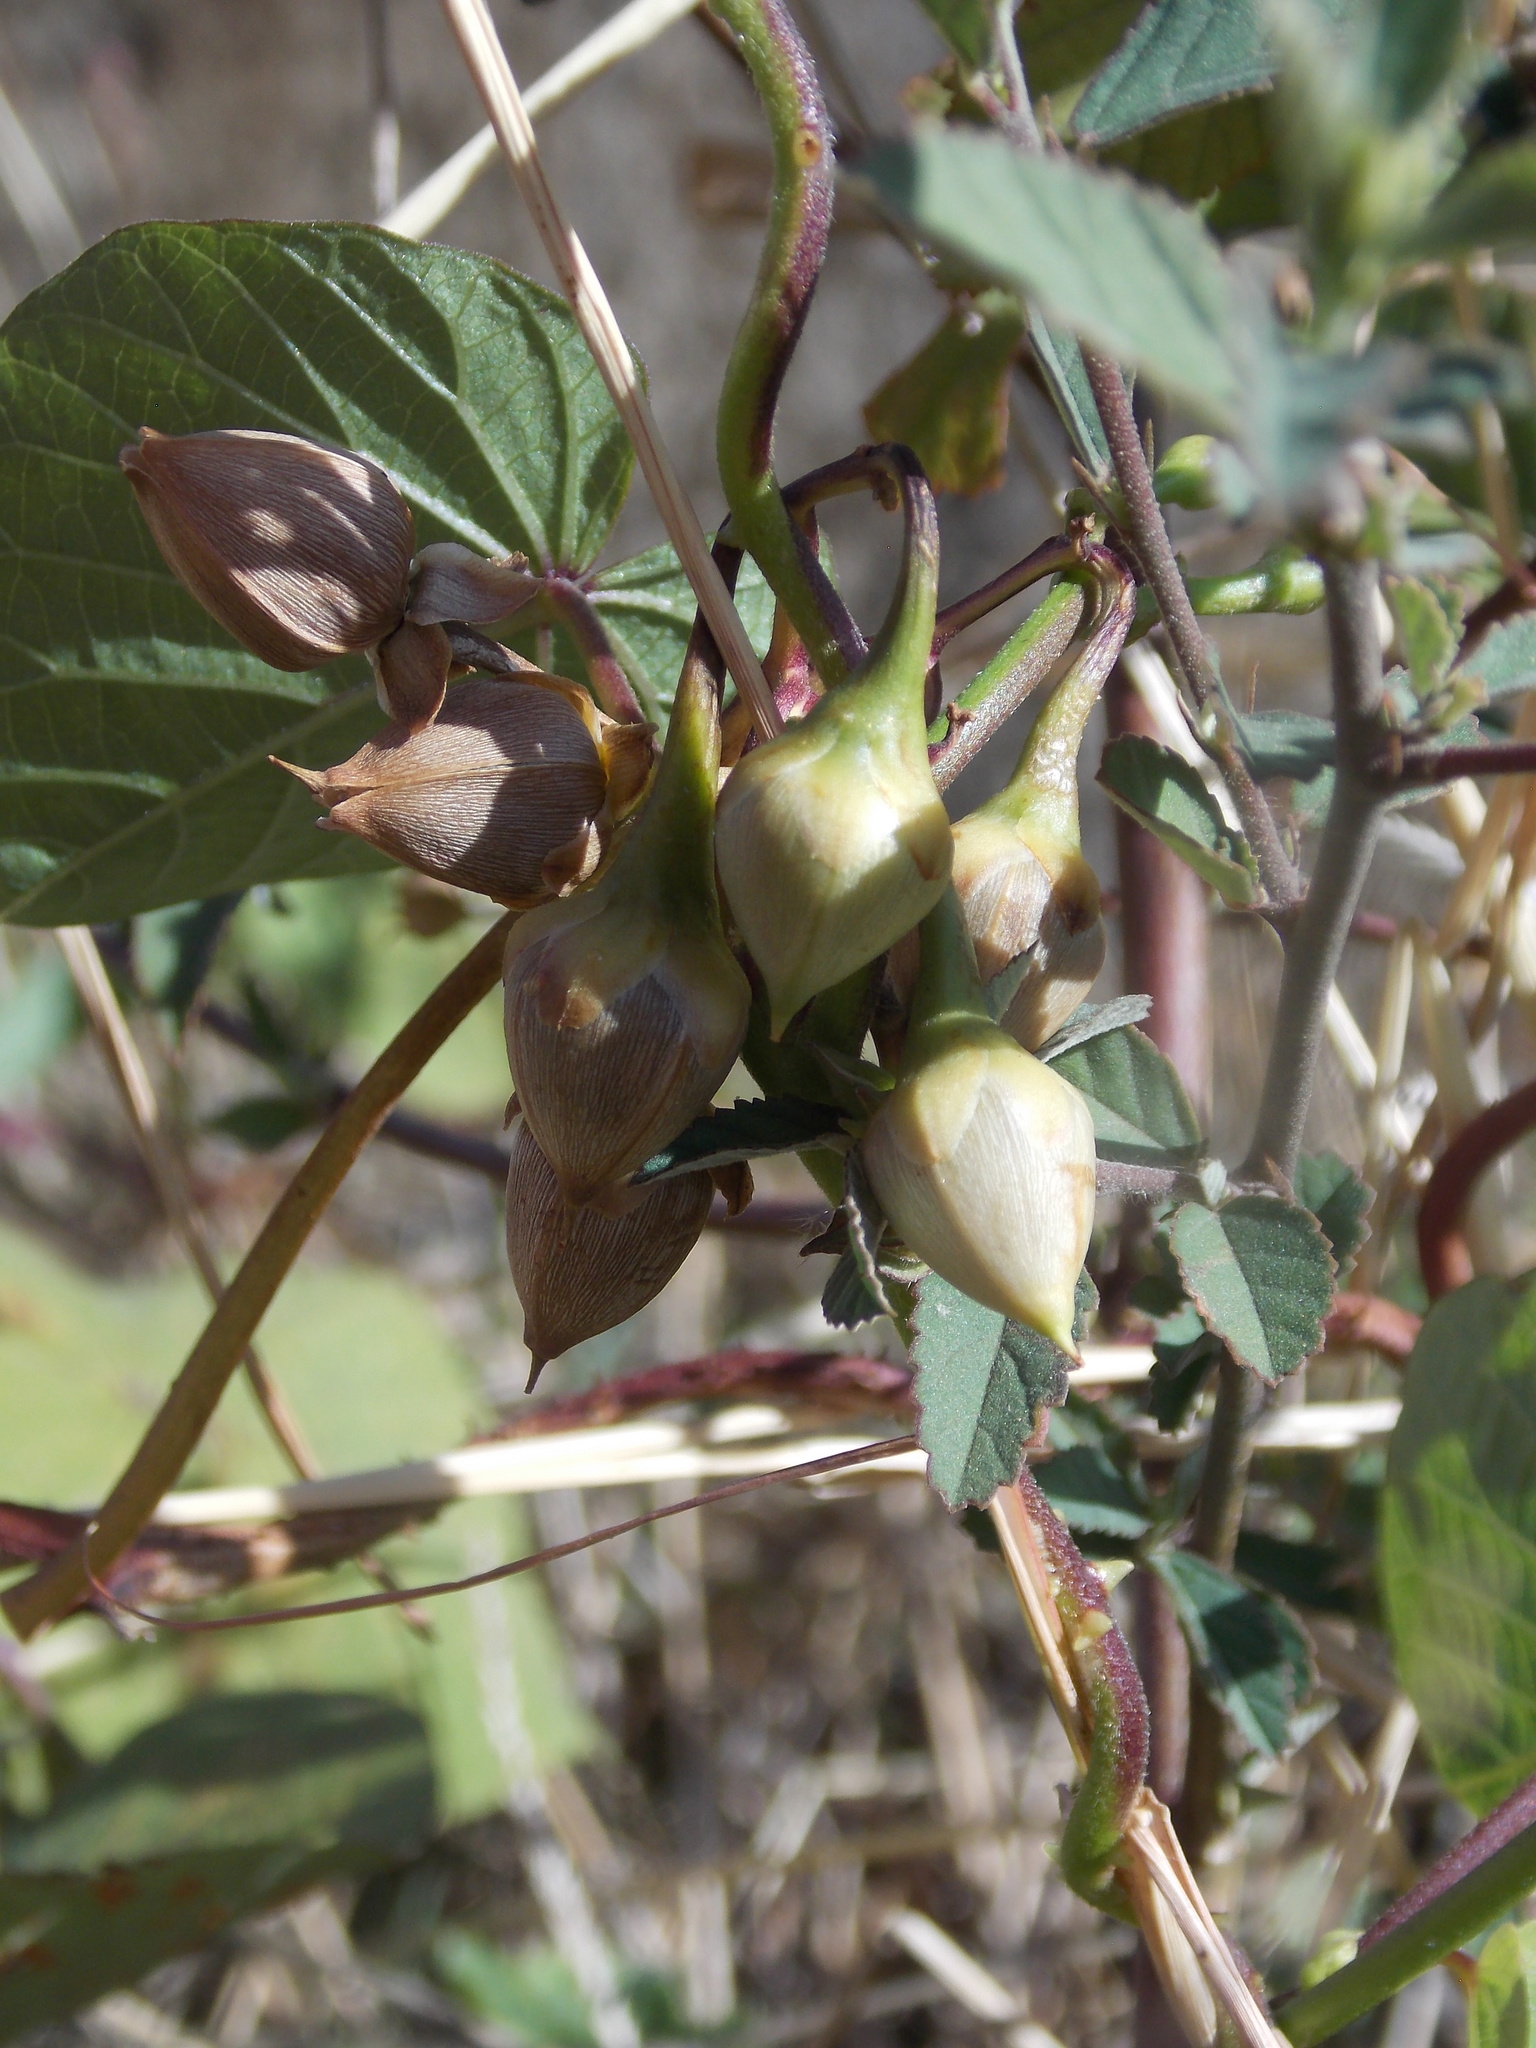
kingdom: Plantae
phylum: Tracheophyta
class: Magnoliopsida
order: Solanales
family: Convolvulaceae
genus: Ipomoea
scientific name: Ipomoea parasitica
